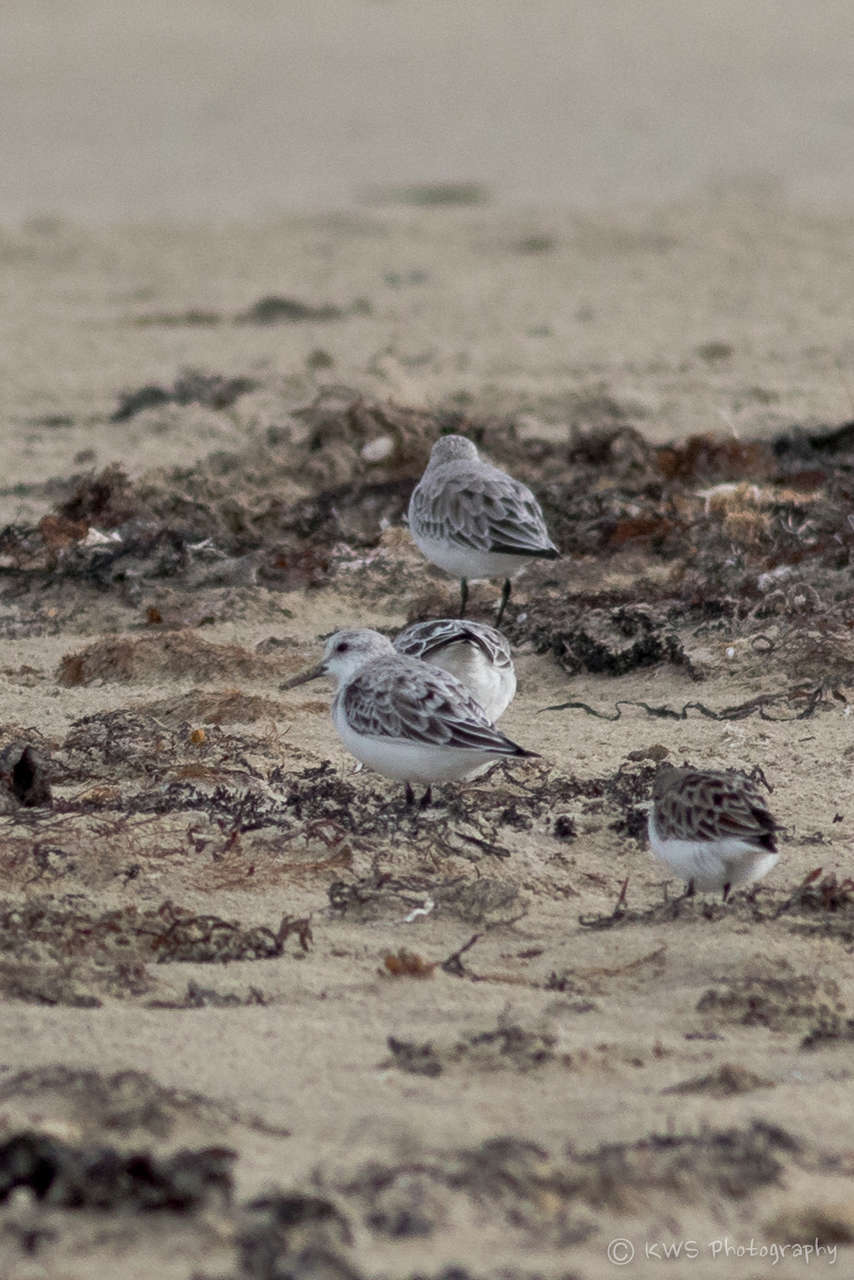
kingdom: Animalia
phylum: Chordata
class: Aves
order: Charadriiformes
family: Scolopacidae
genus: Calidris
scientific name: Calidris alba
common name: Sanderling
